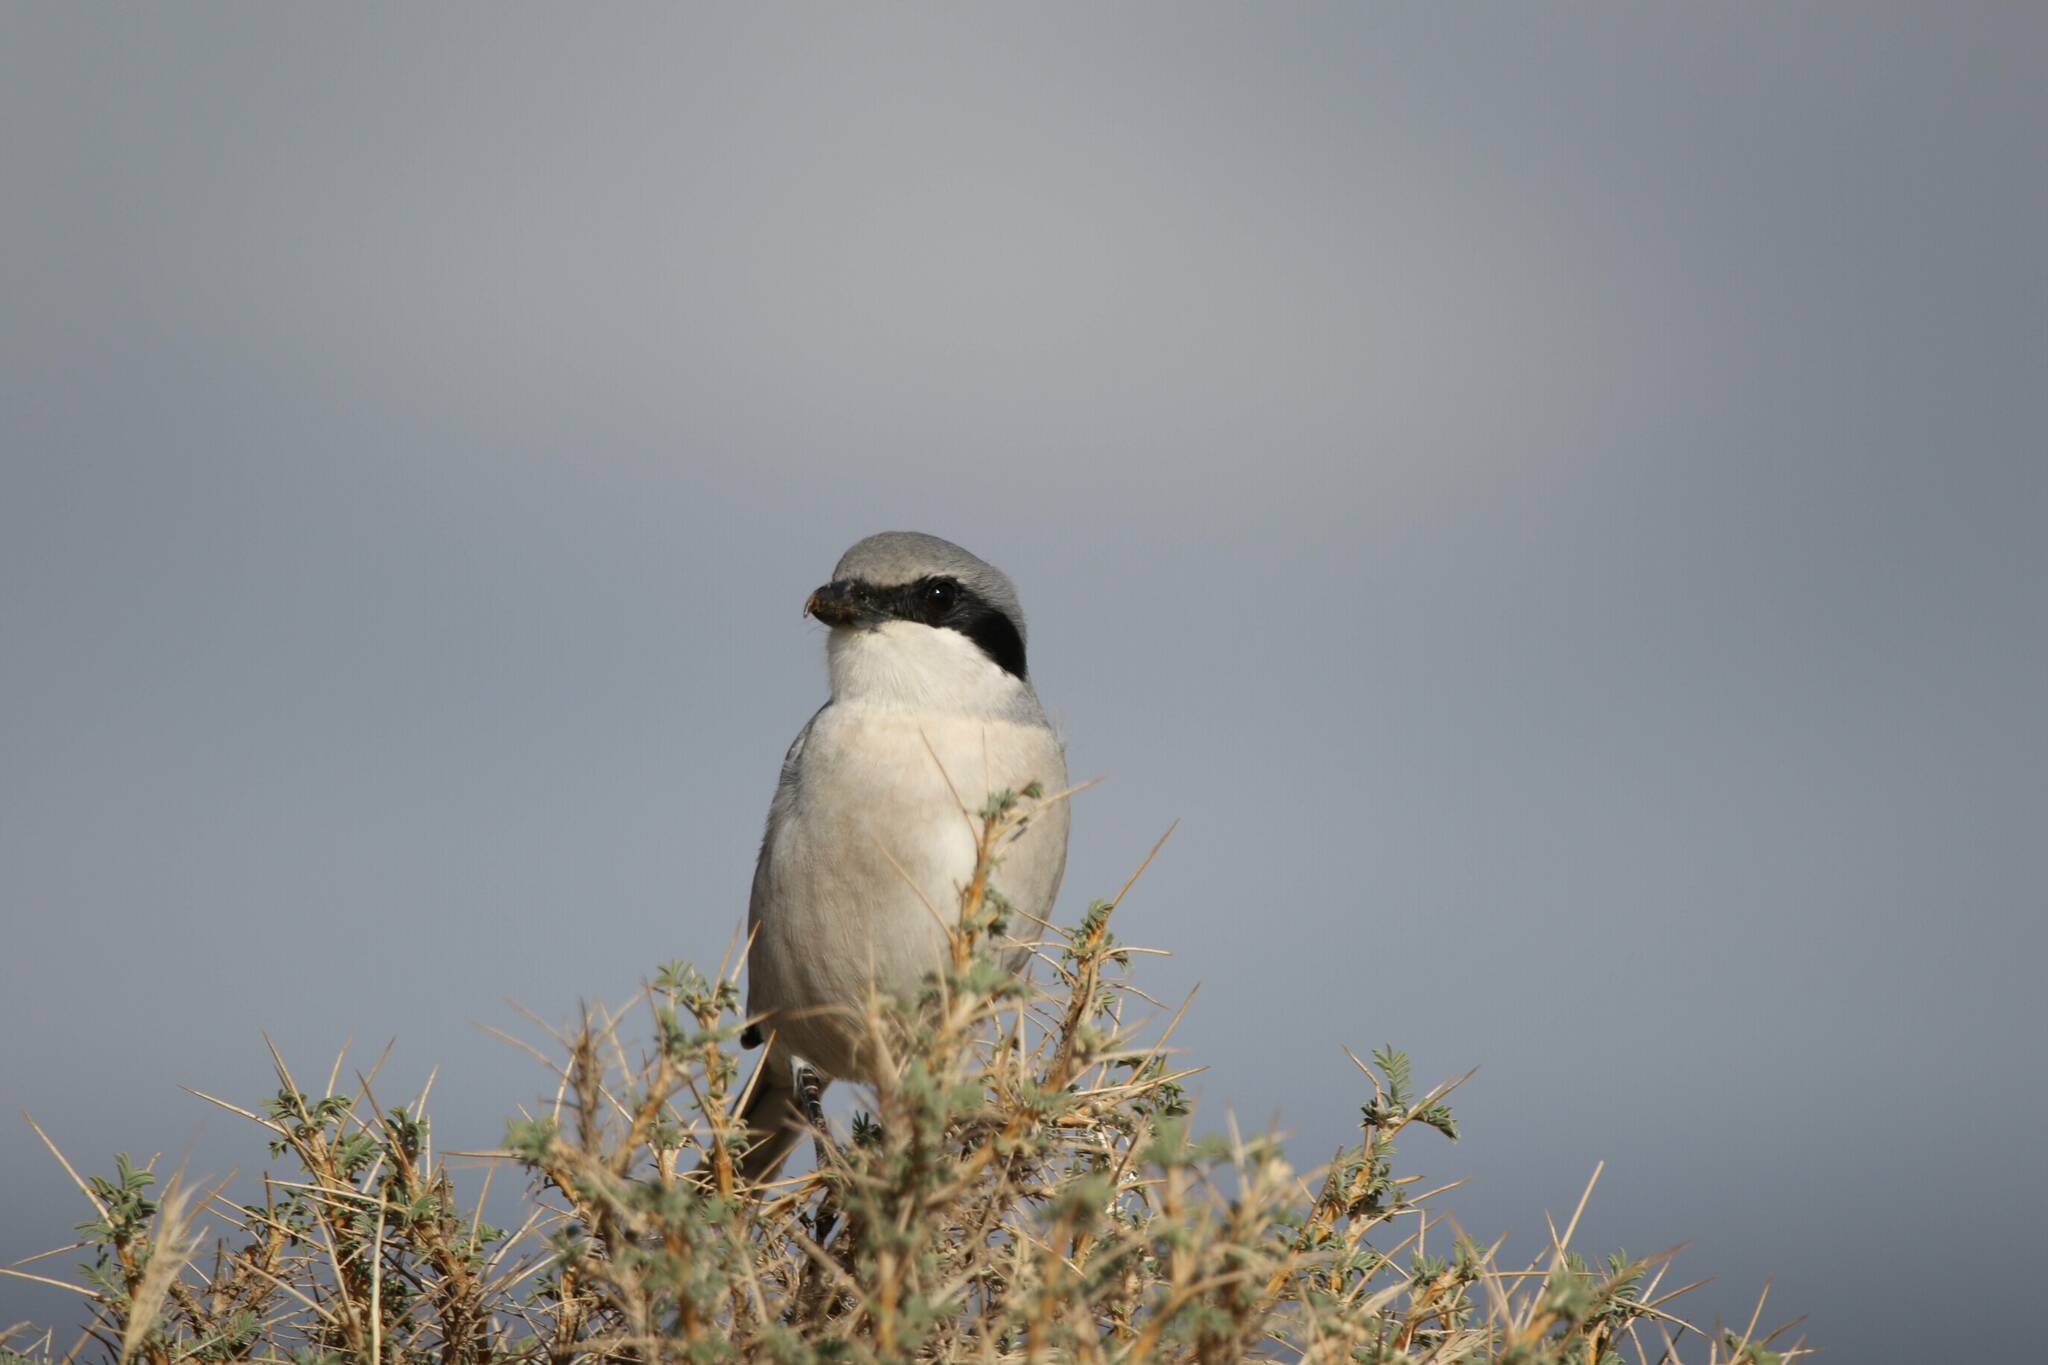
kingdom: Animalia
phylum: Chordata
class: Aves
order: Passeriformes
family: Laniidae
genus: Lanius
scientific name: Lanius excubitor
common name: Great grey shrike
